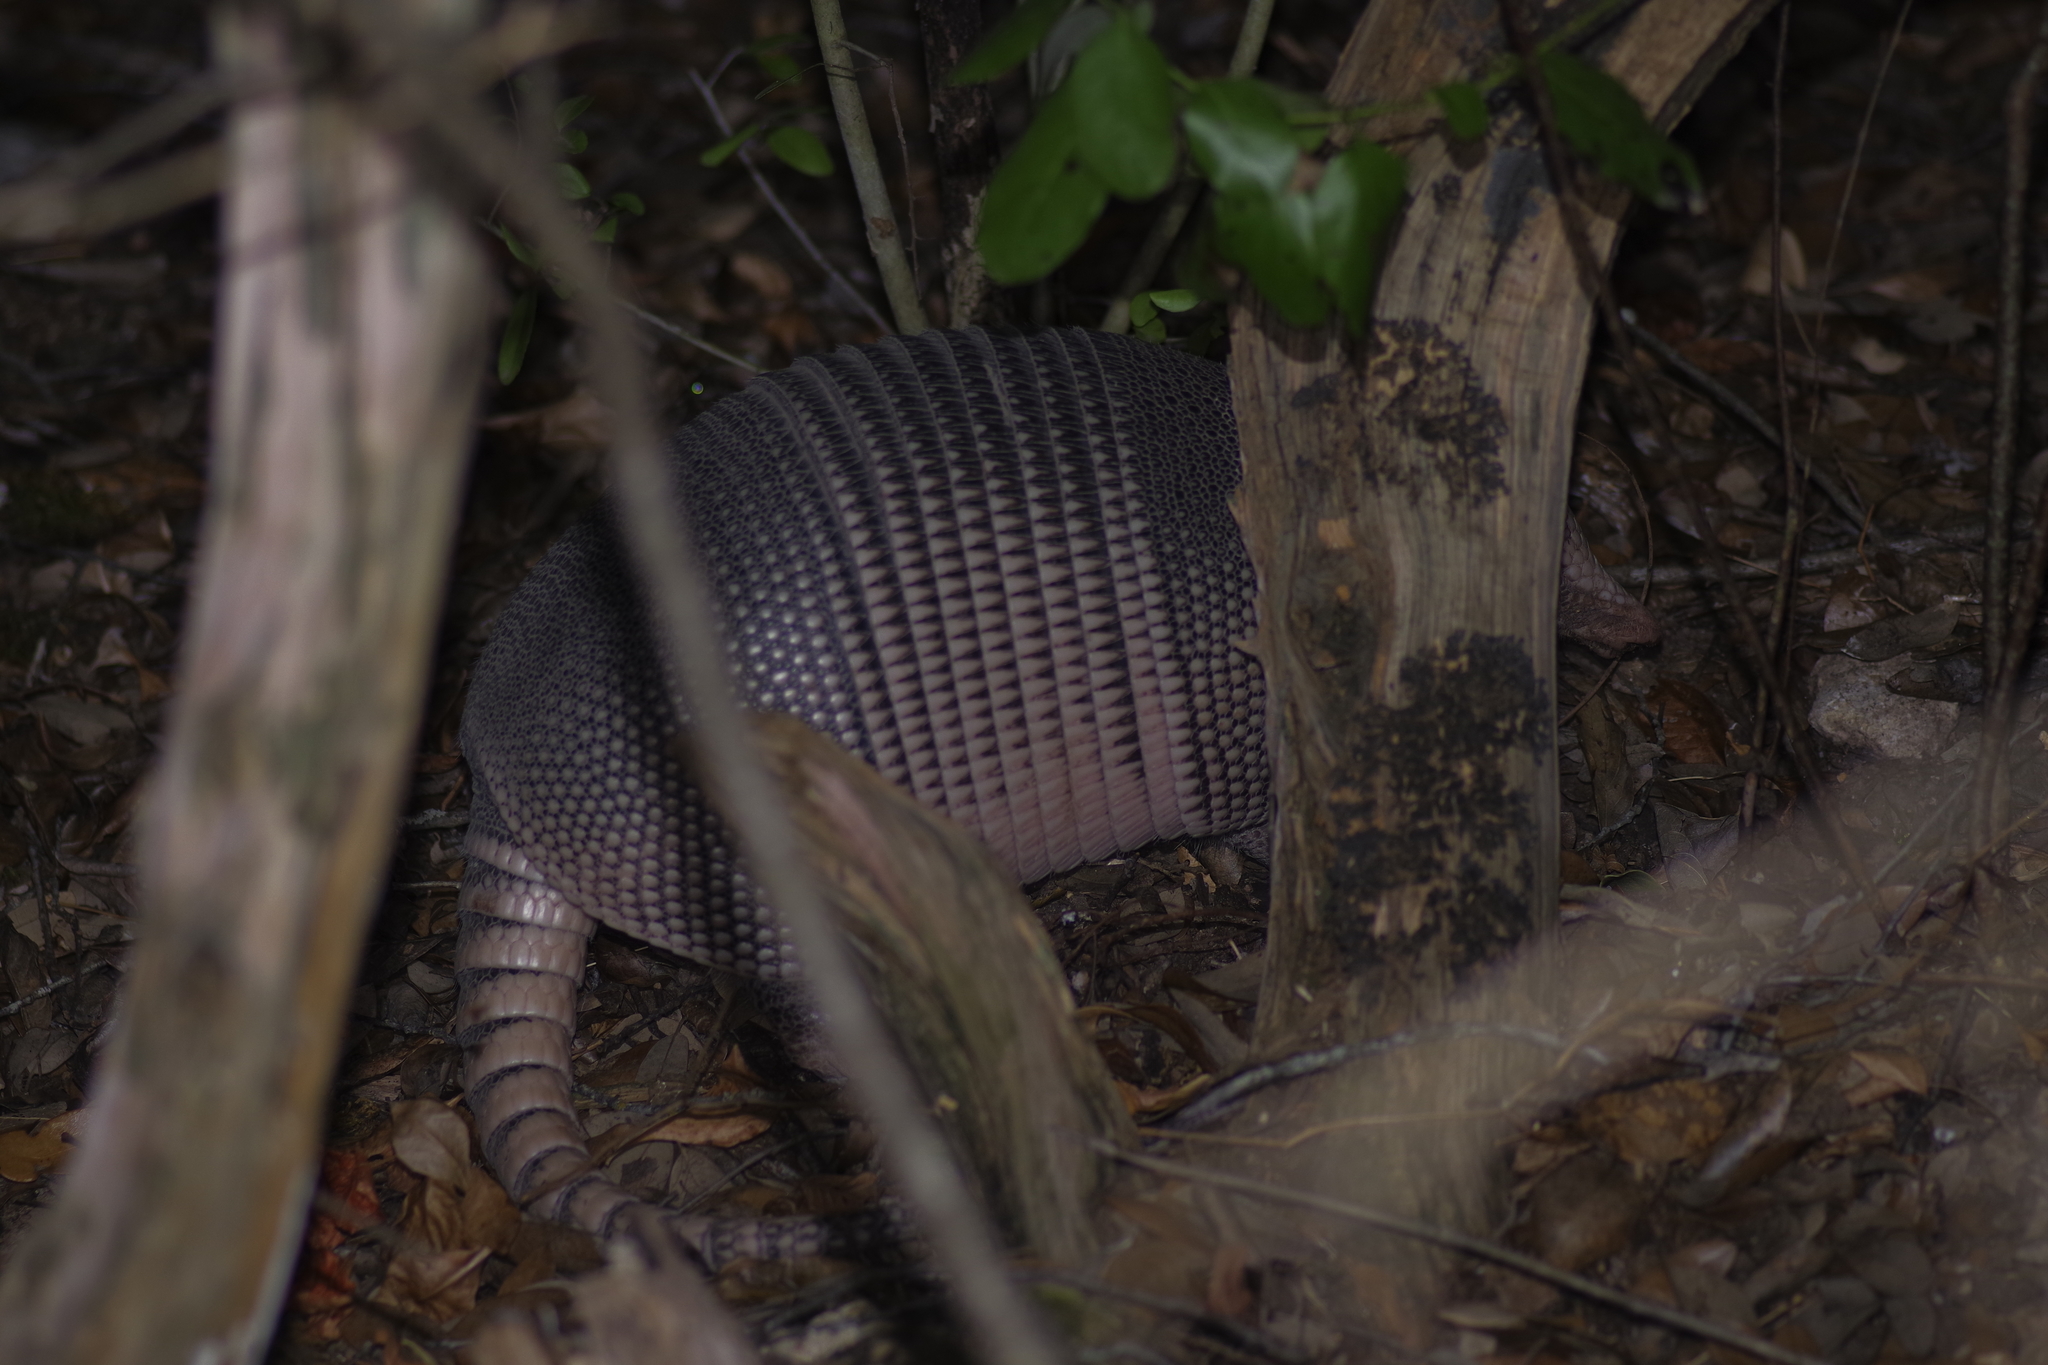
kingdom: Animalia
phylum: Chordata
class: Mammalia
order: Cingulata
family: Dasypodidae
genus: Dasypus
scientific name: Dasypus novemcinctus
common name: Nine-banded armadillo
